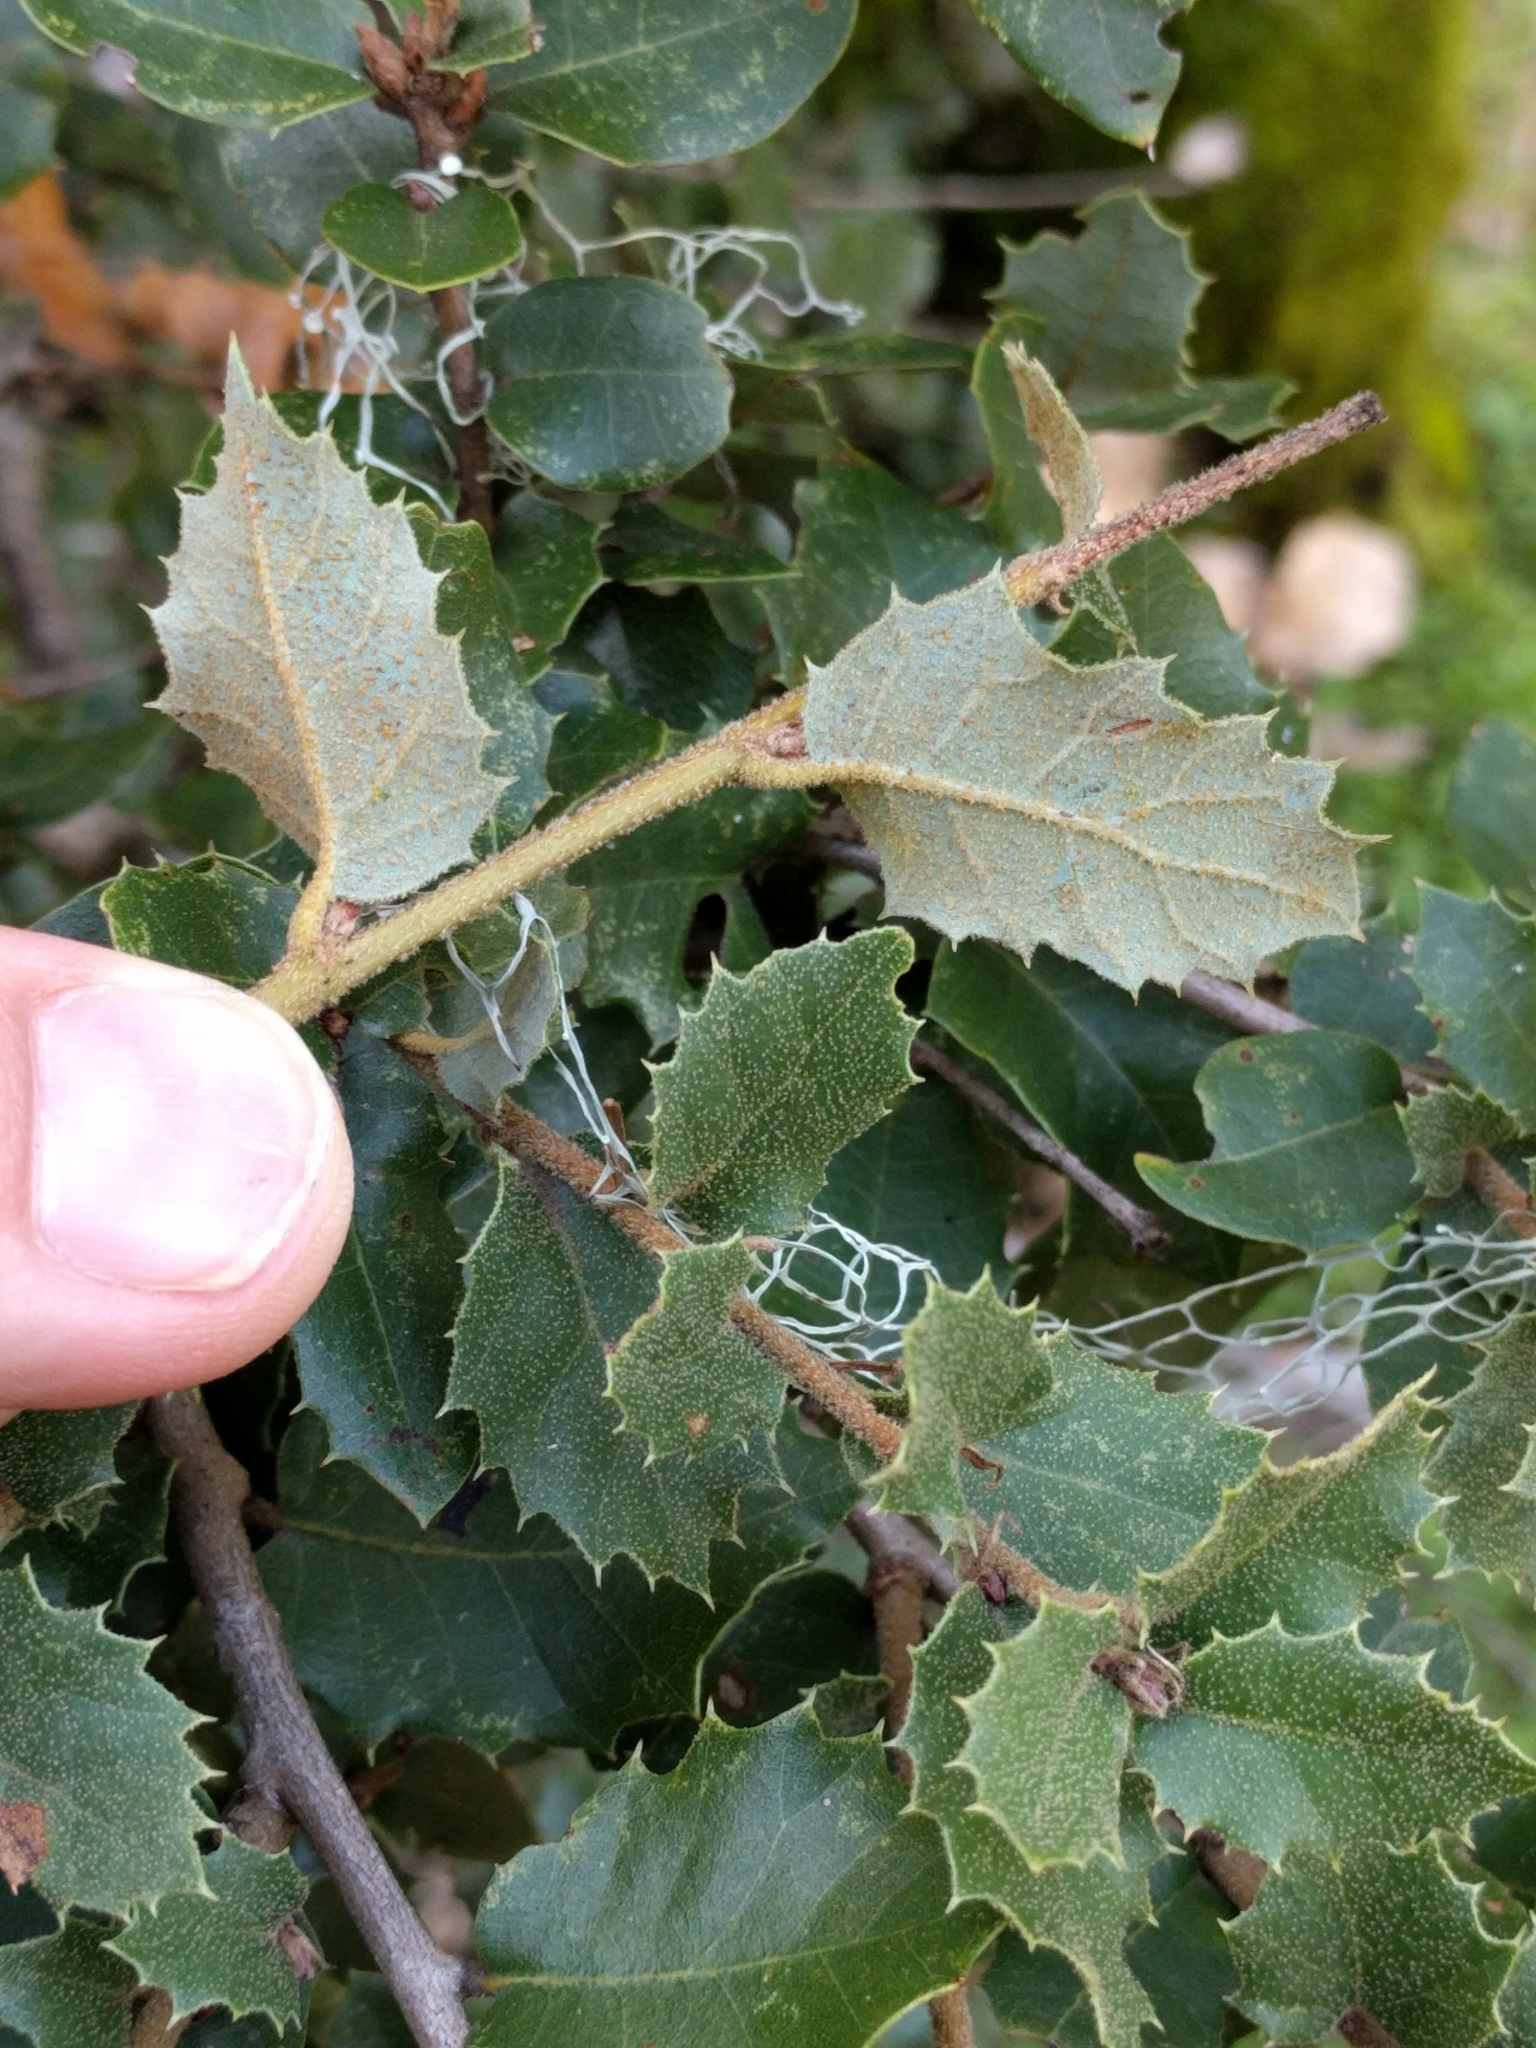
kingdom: Plantae
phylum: Tracheophyta
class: Magnoliopsida
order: Fagales
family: Fagaceae
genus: Quercus
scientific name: Quercus chrysolepis
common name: Canyon live oak
